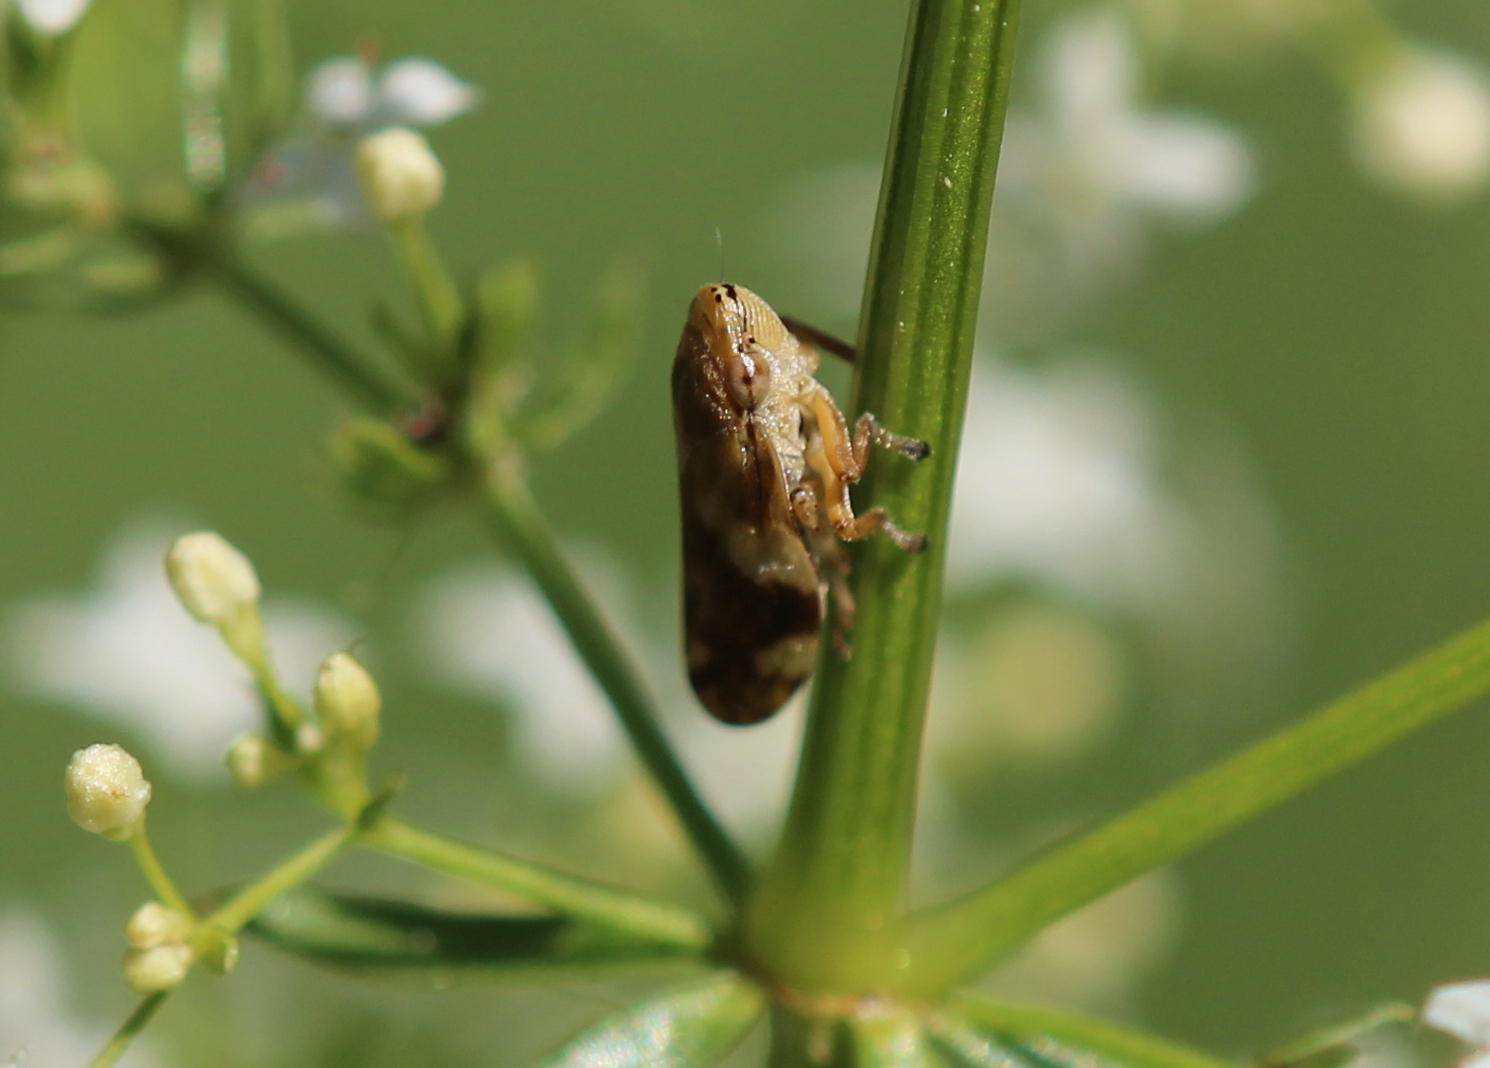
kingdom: Animalia
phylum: Arthropoda
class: Insecta
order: Hemiptera
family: Aphrophoridae
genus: Philaenus
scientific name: Philaenus spumarius
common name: Meadow spittlebug
